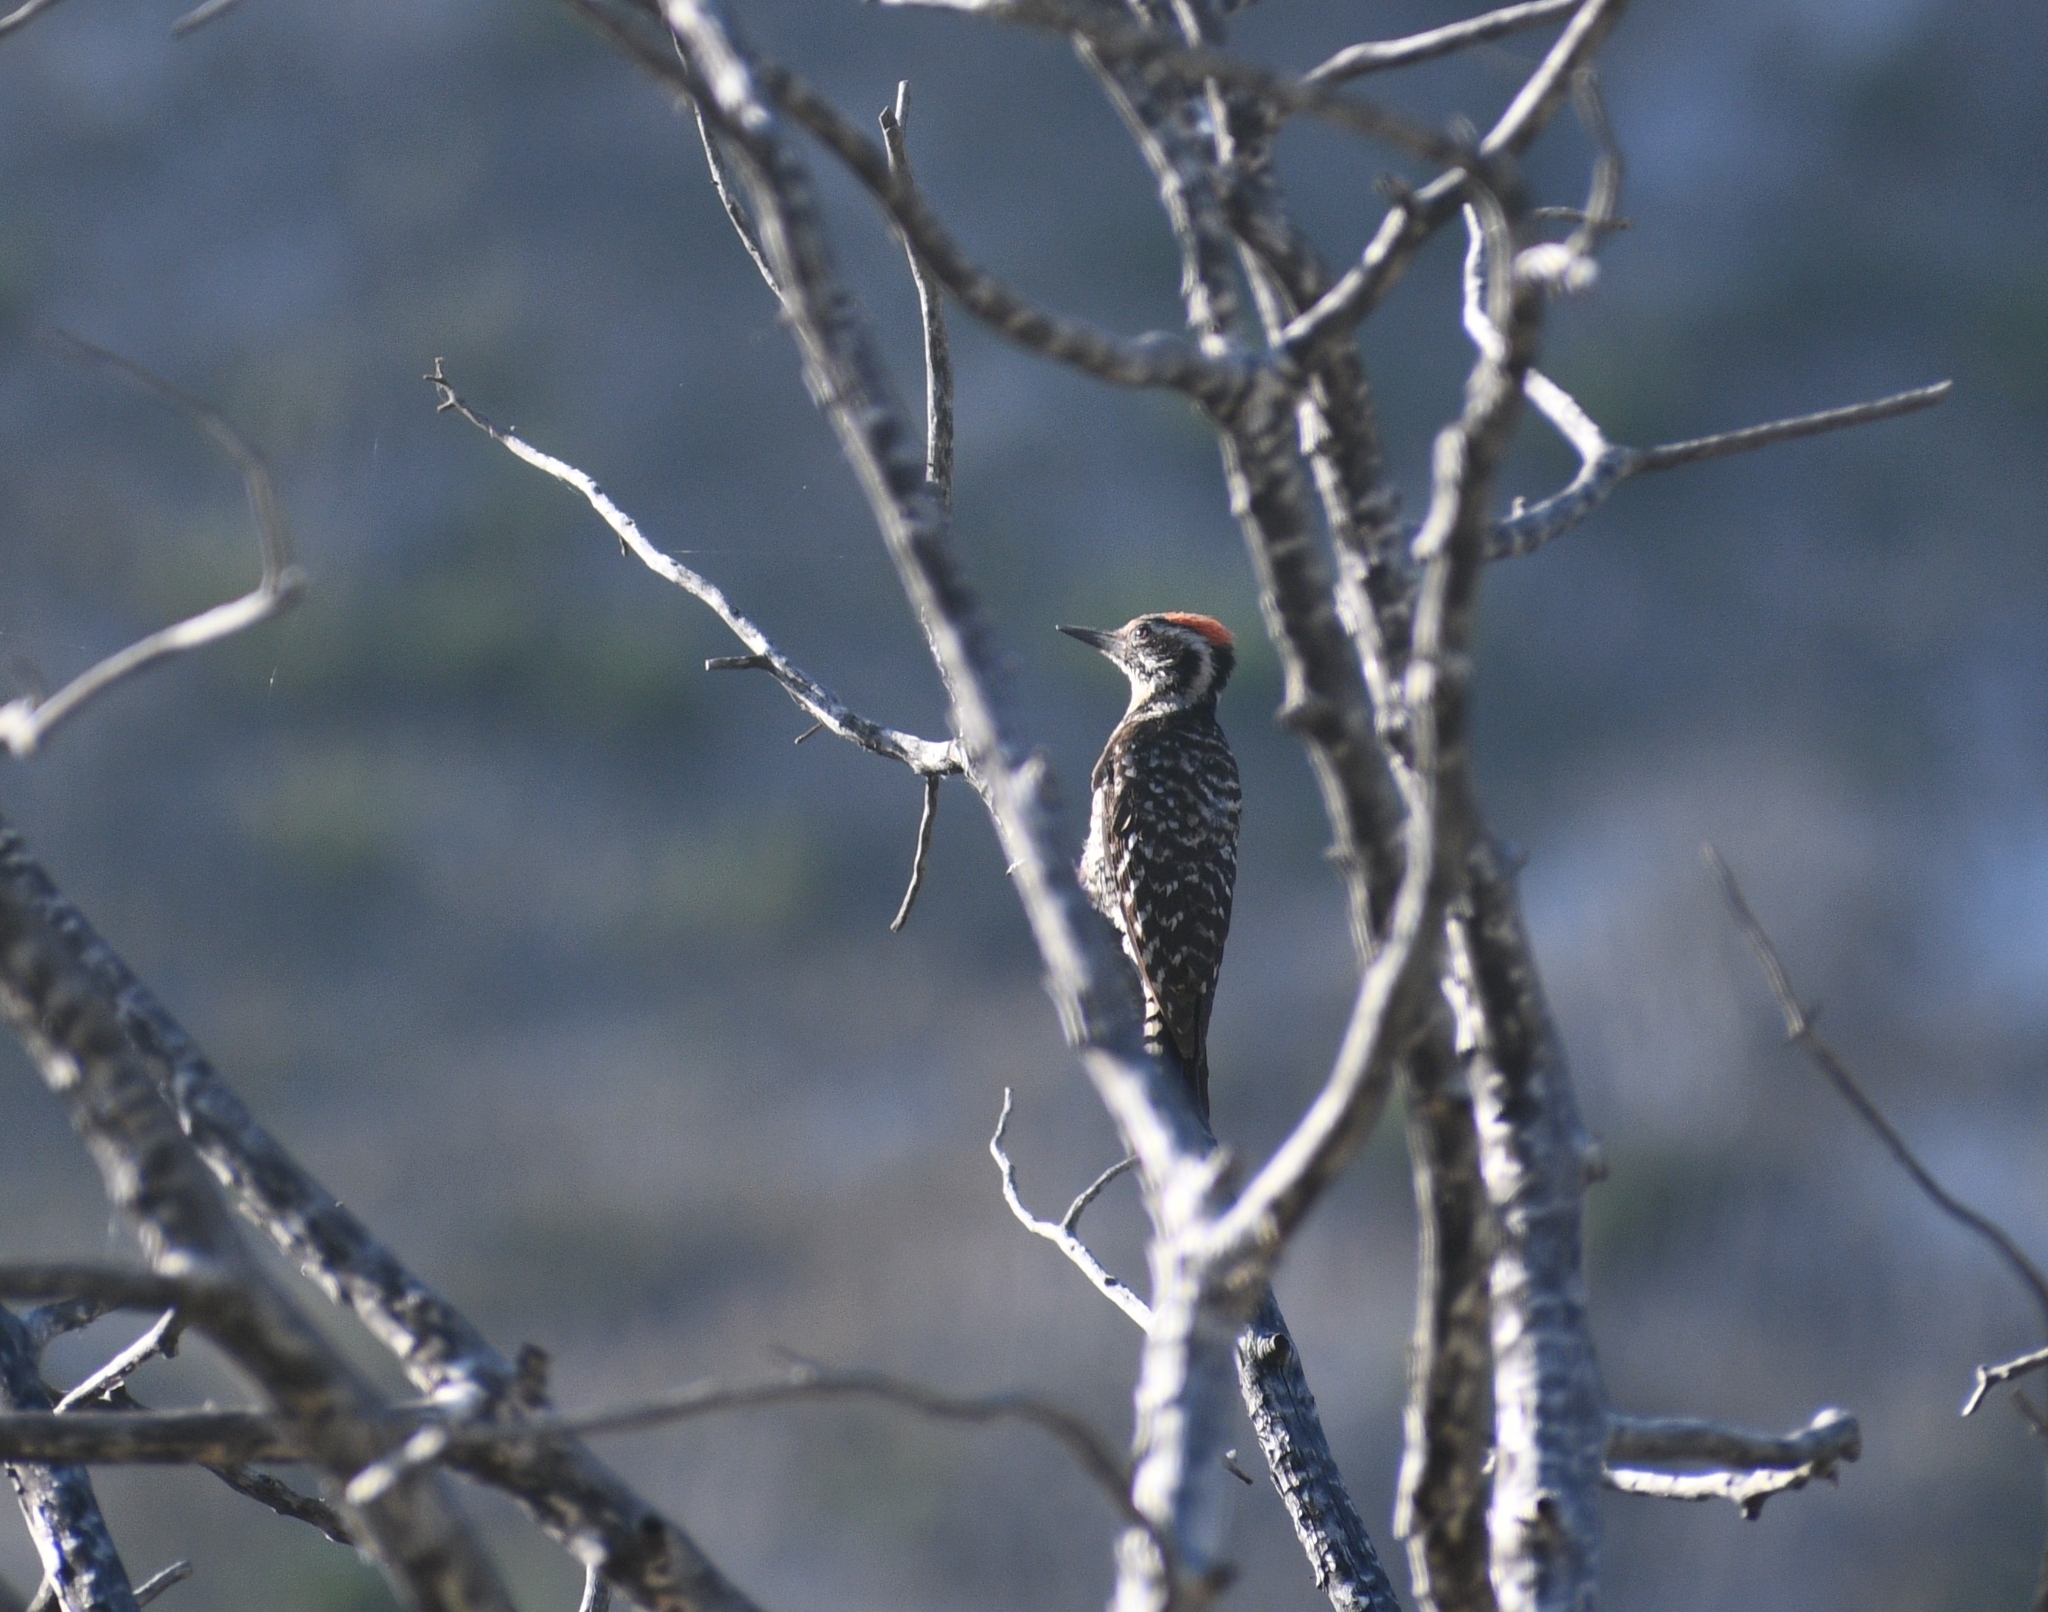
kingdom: Animalia
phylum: Chordata
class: Aves
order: Piciformes
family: Picidae
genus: Dryobates
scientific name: Dryobates scalaris
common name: Ladder-backed woodpecker
